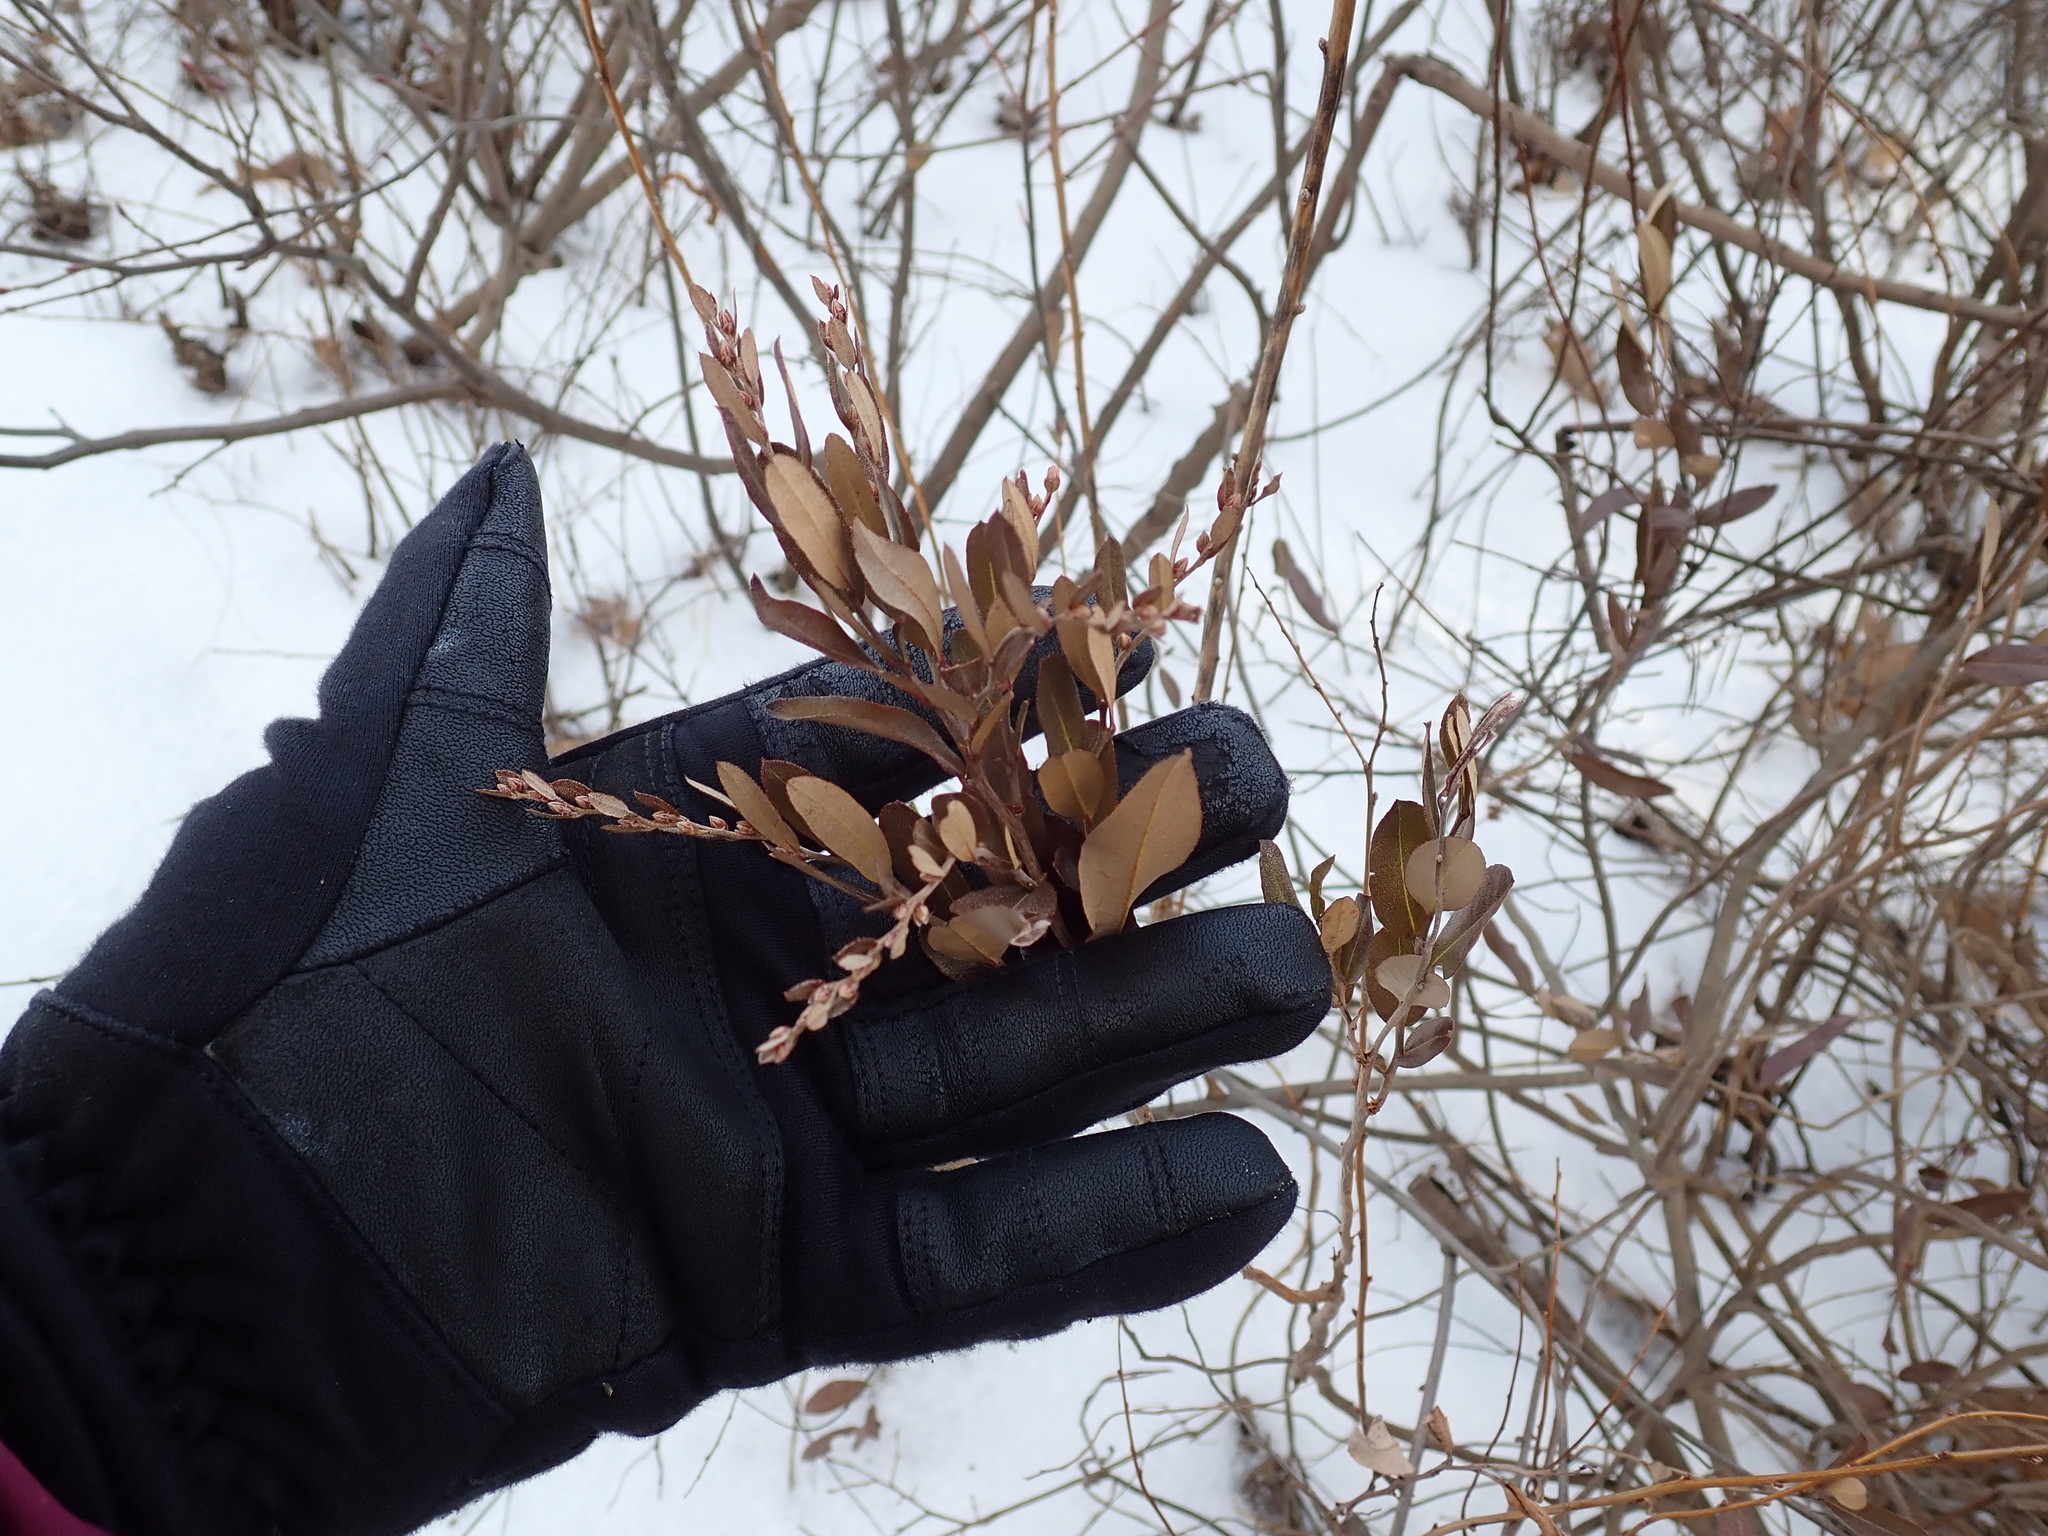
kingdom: Plantae
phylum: Tracheophyta
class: Magnoliopsida
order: Ericales
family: Ericaceae
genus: Chamaedaphne
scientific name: Chamaedaphne calyculata
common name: Leatherleaf
